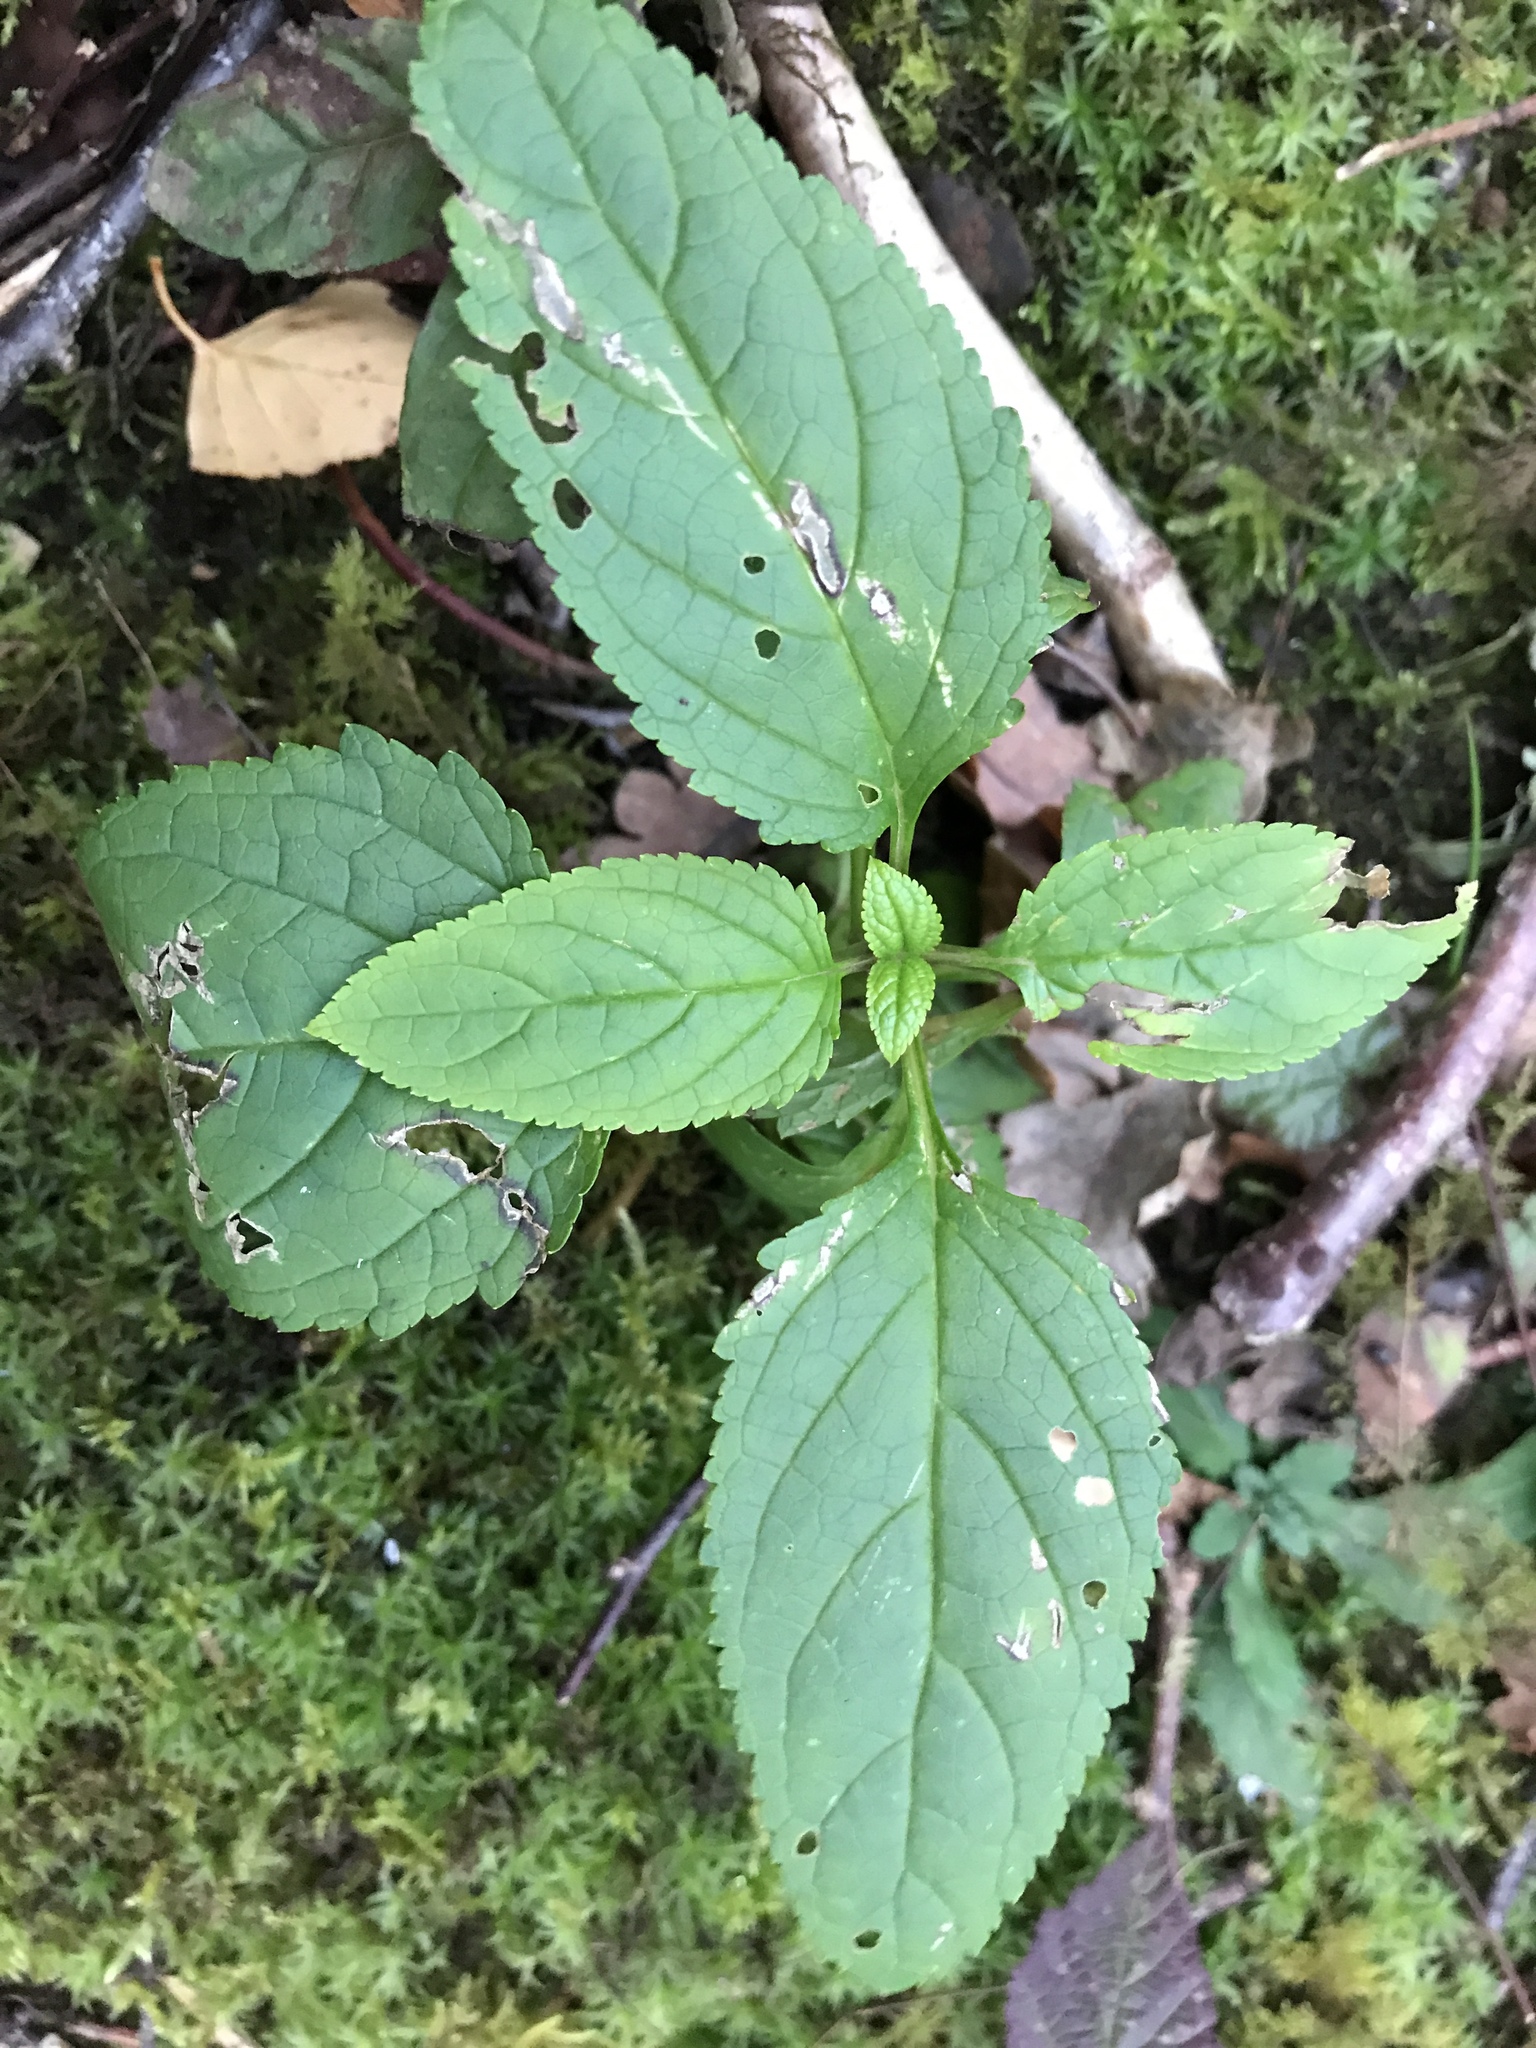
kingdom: Plantae
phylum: Tracheophyta
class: Magnoliopsida
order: Lamiales
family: Scrophulariaceae
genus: Scrophularia
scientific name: Scrophularia nodosa
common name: Common figwort
